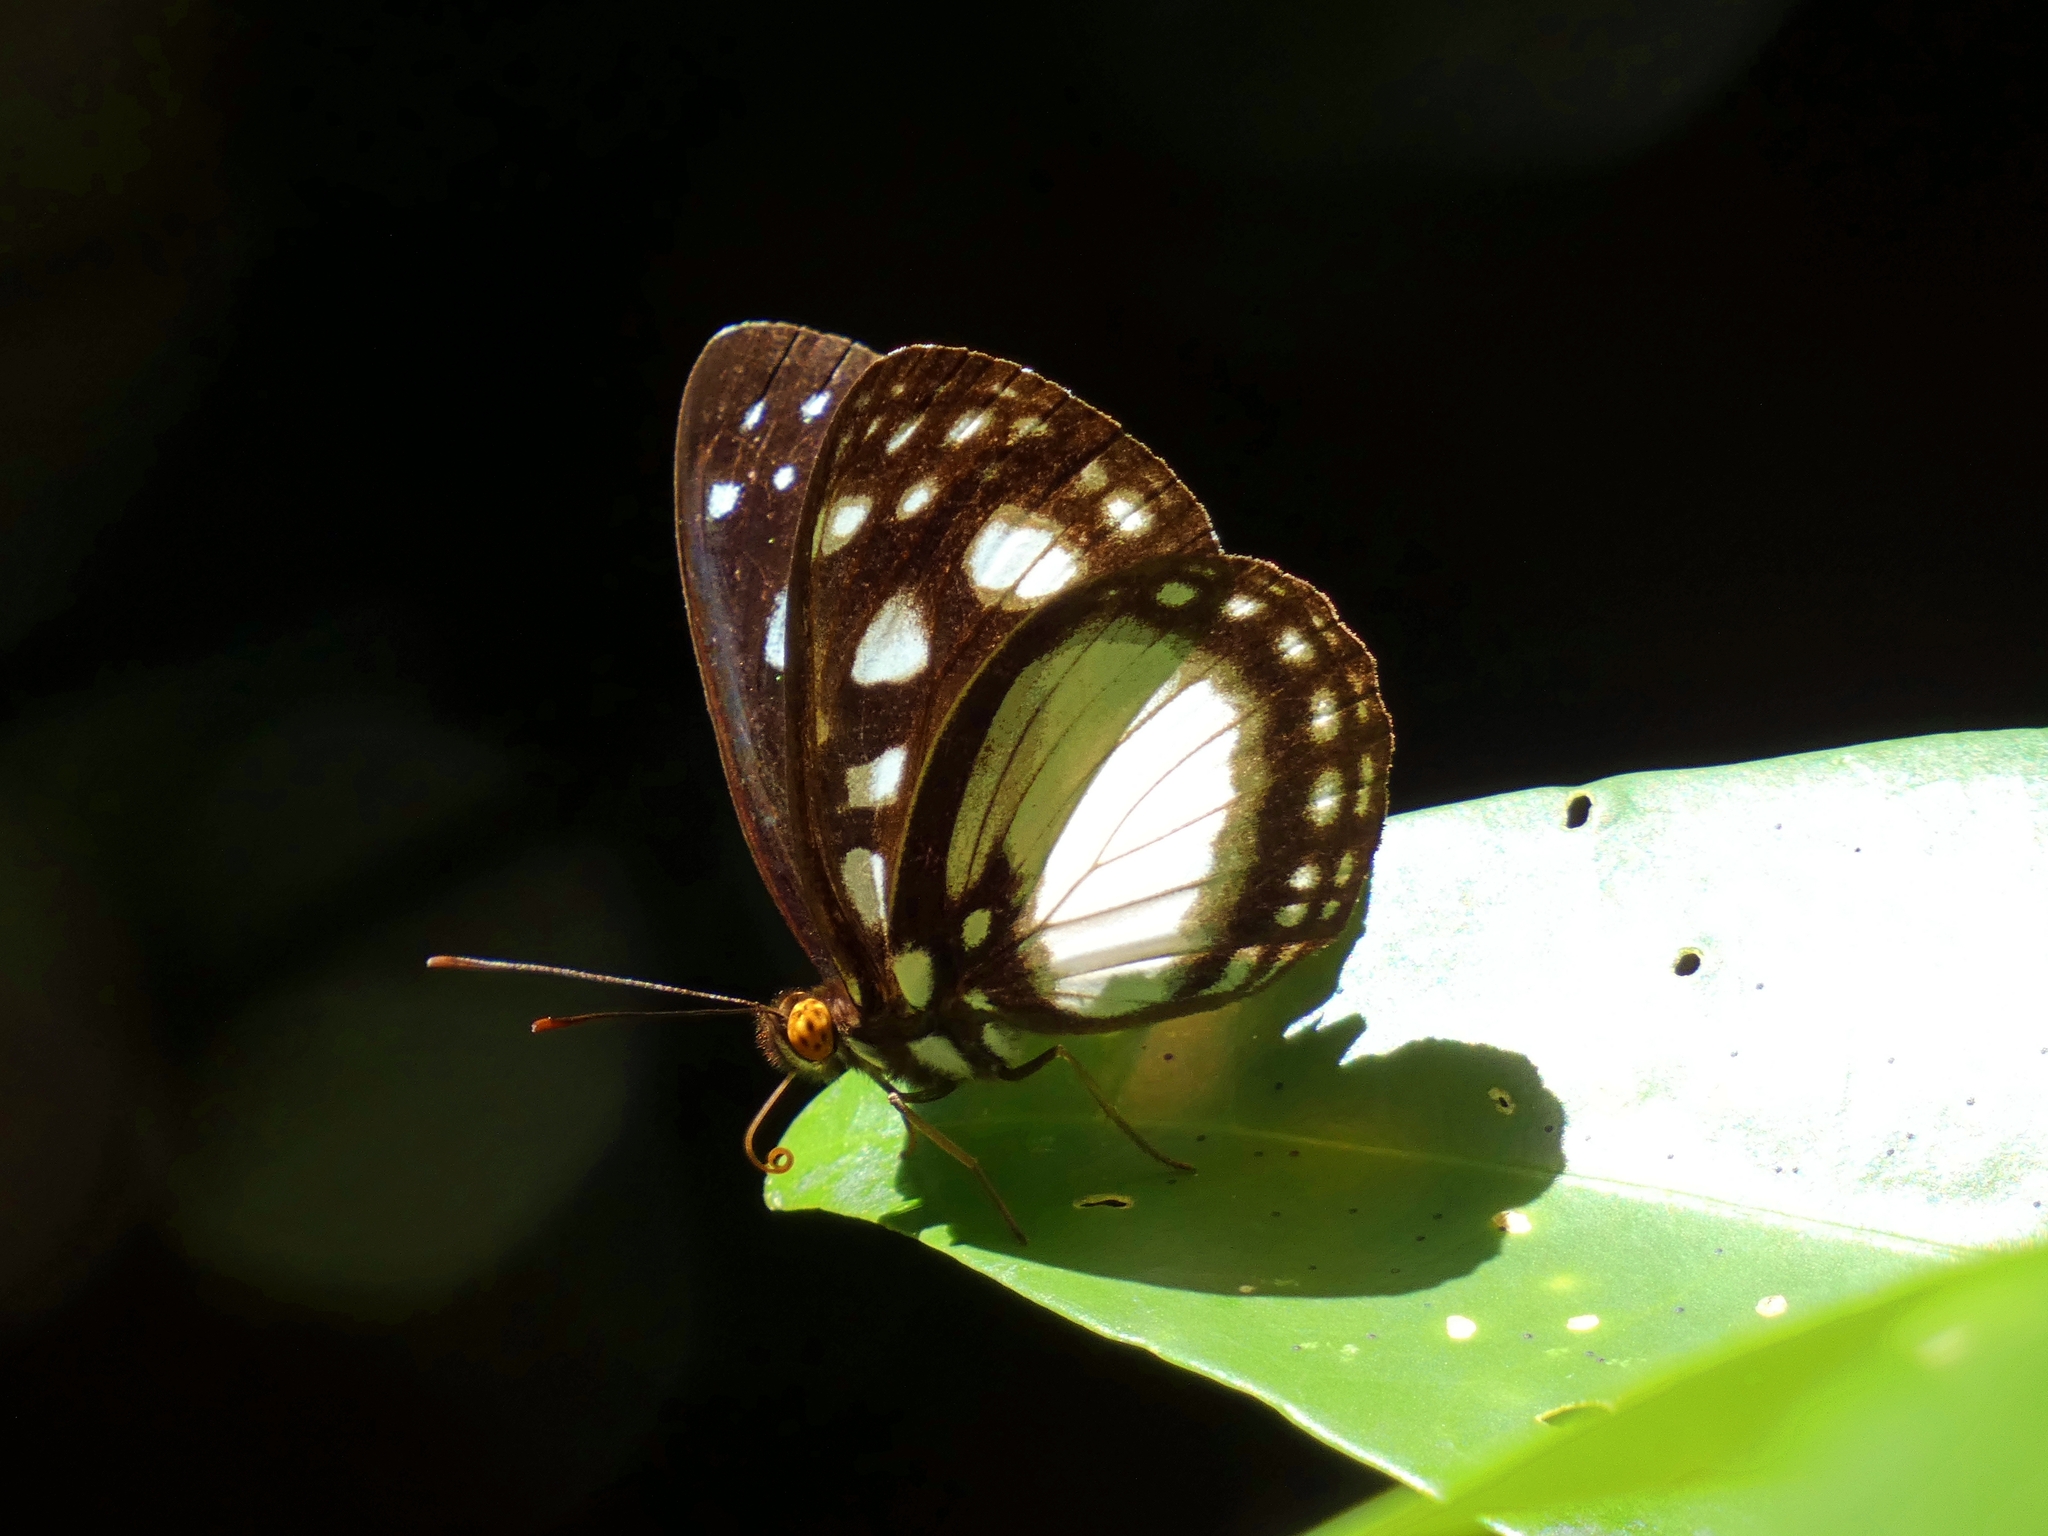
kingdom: Animalia
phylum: Arthropoda
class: Insecta
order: Lepidoptera
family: Nymphalidae
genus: Neptis
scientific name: Neptis praslini
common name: Yellow-eyed plane
